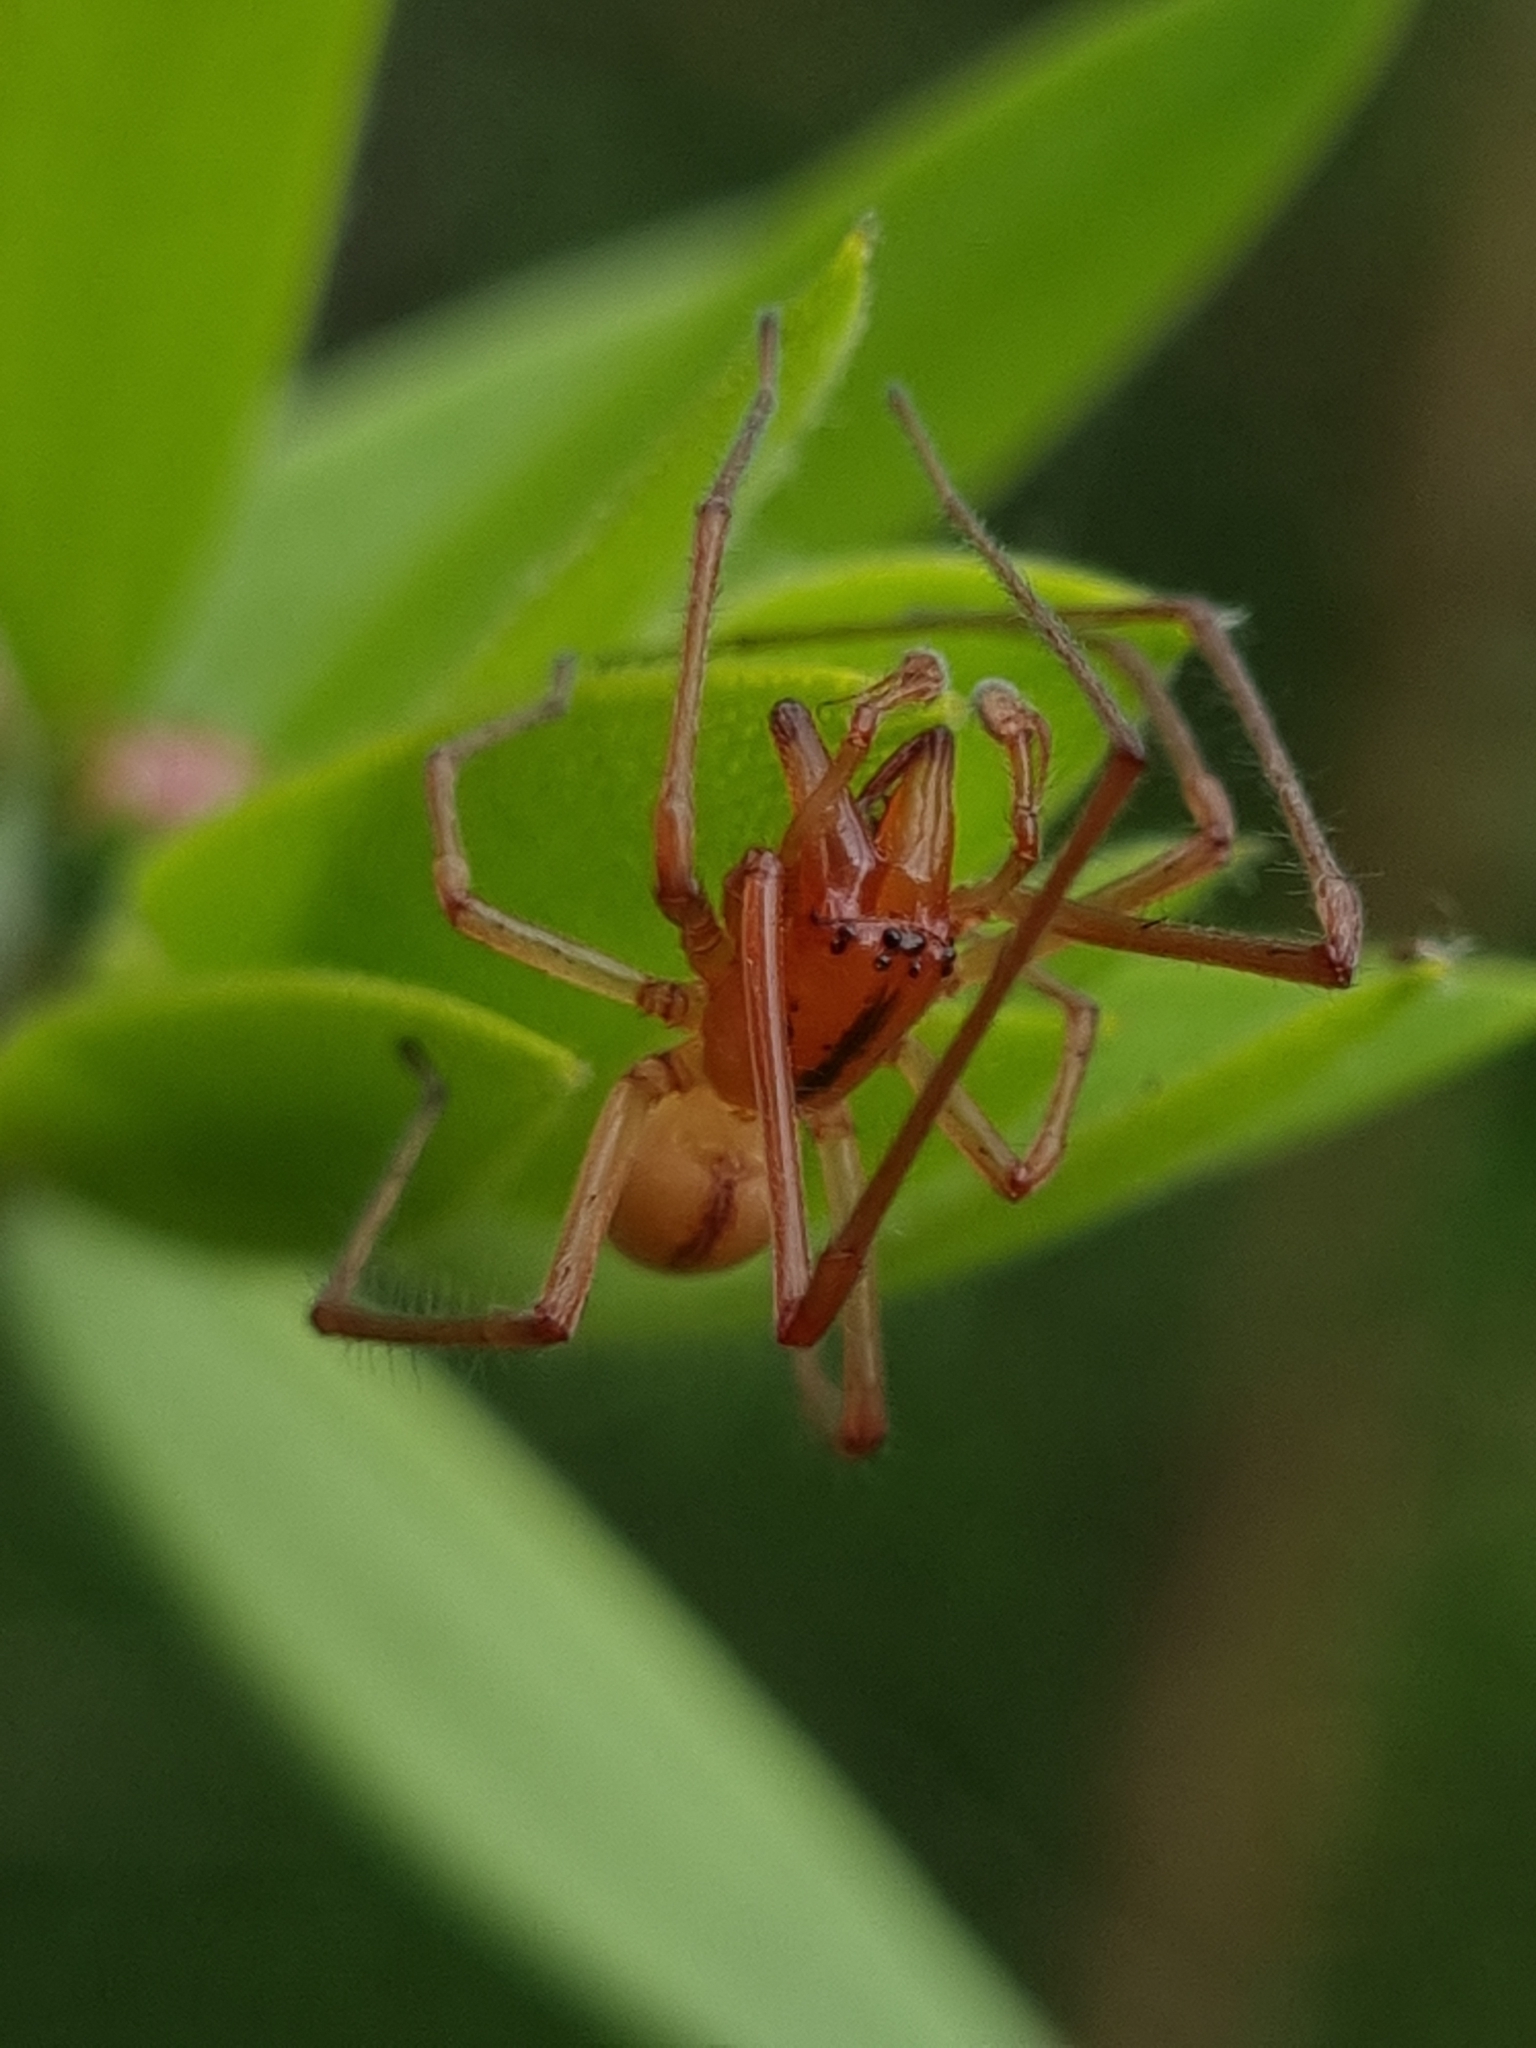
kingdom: Animalia
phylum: Arthropoda
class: Arachnida
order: Araneae
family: Cheiracanthiidae
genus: Cheiracanthium
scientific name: Cheiracanthium gracile
